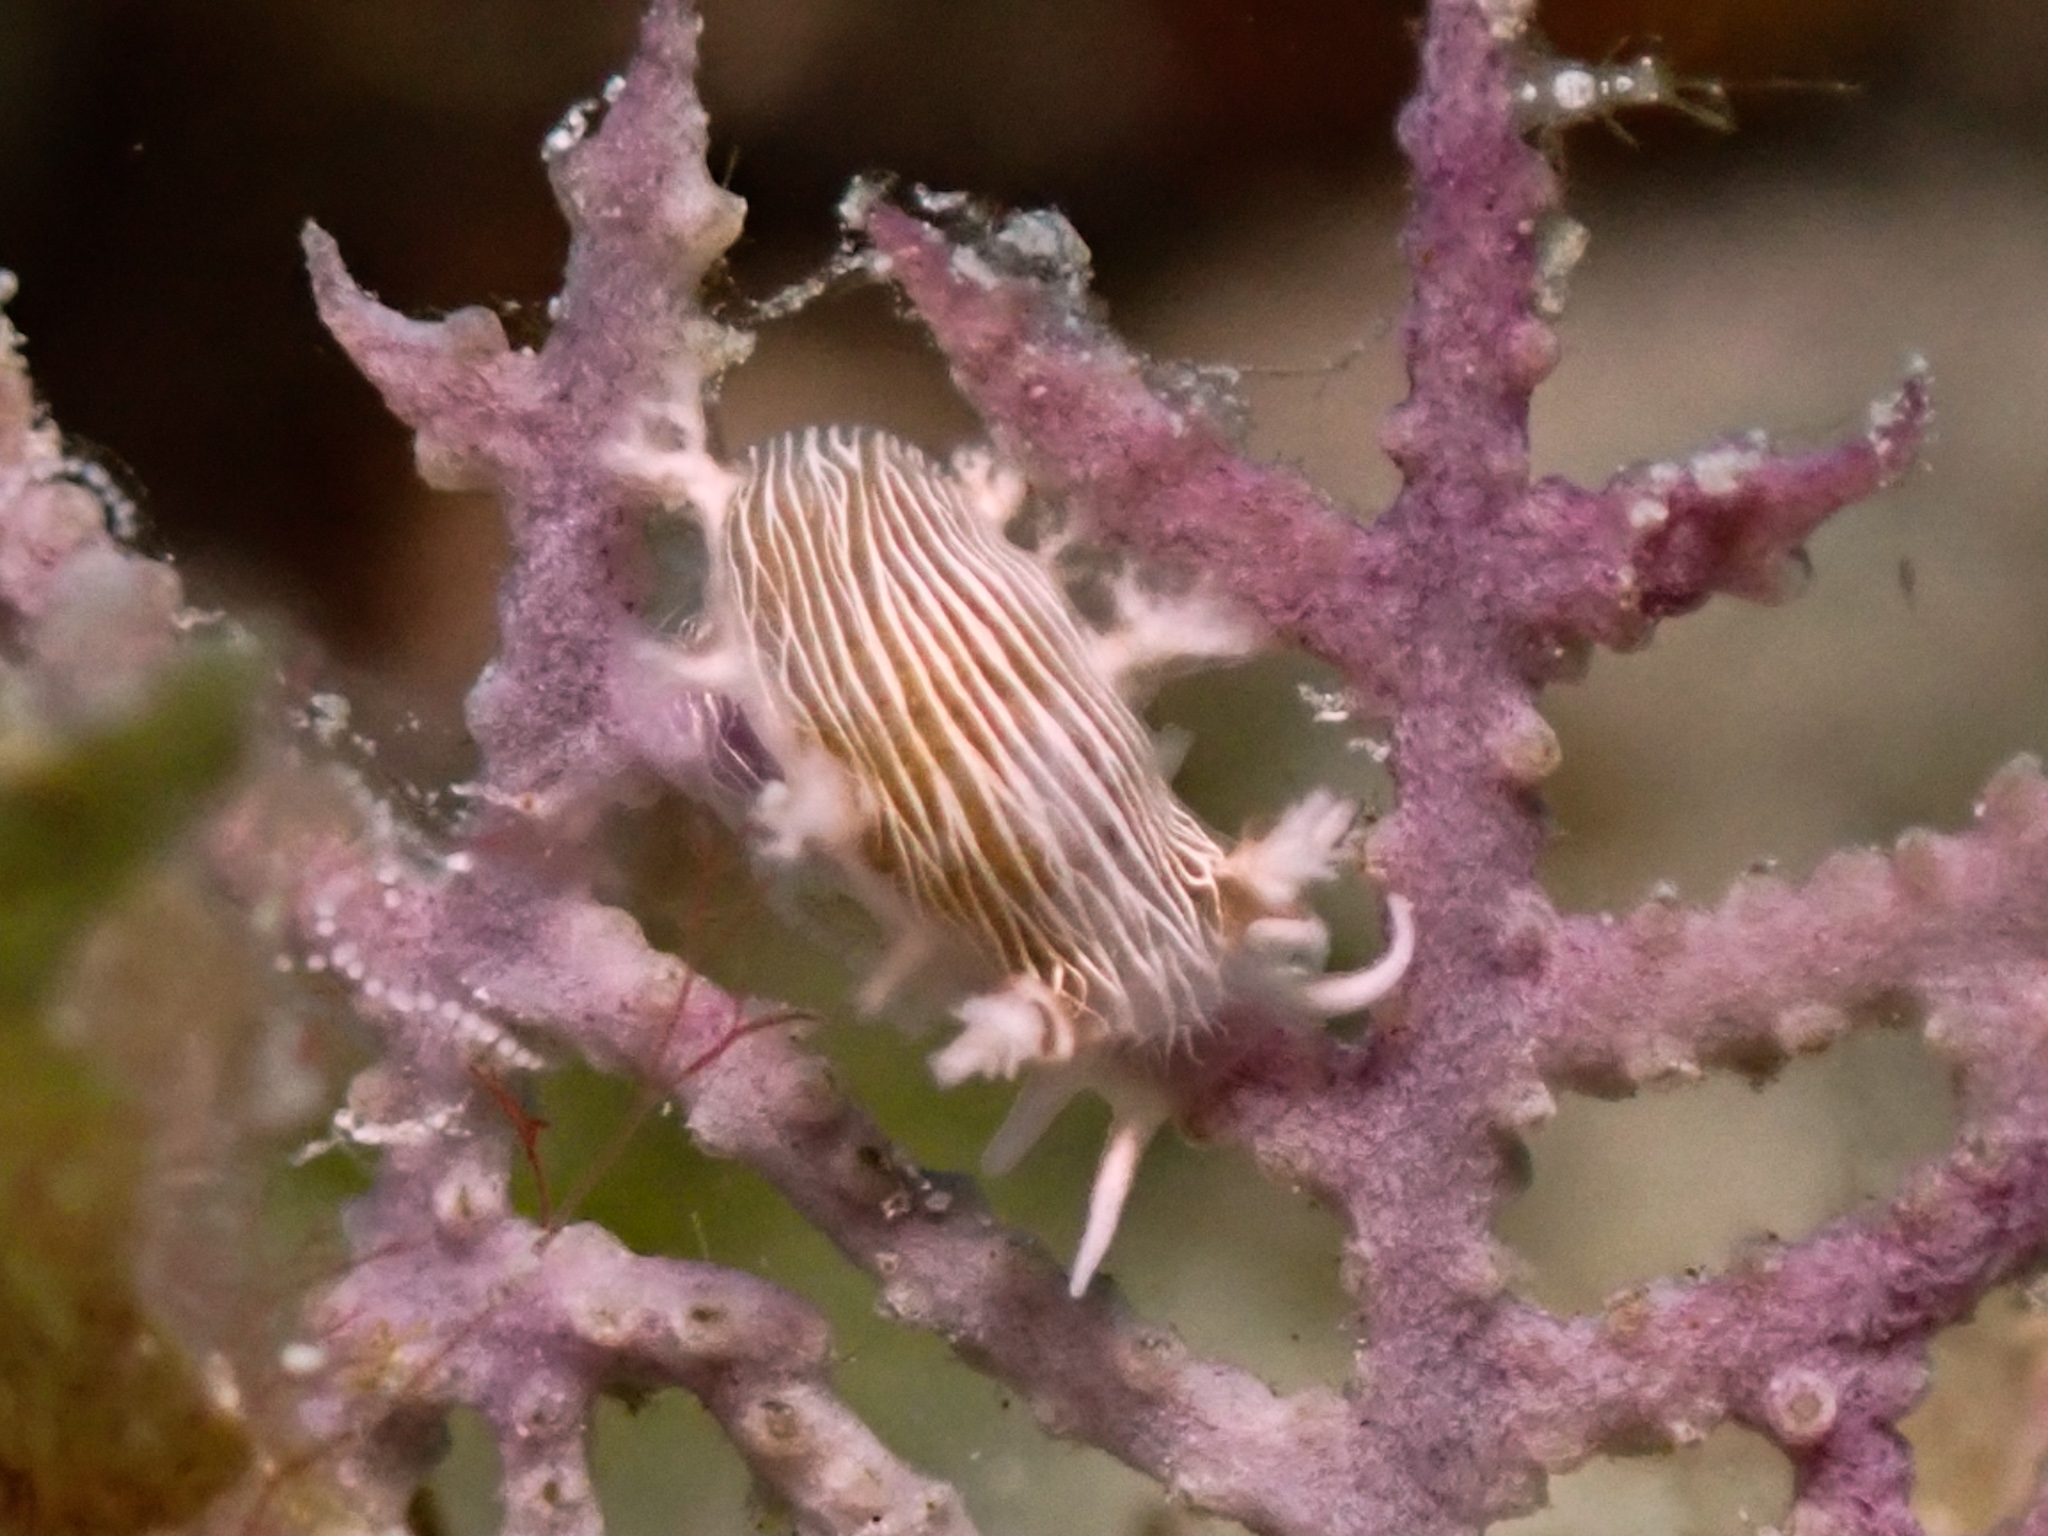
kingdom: Animalia
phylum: Mollusca
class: Gastropoda
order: Nudibranchia
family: Tritoniidae
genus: Tritonicula
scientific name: Tritonicula hamnerorum
